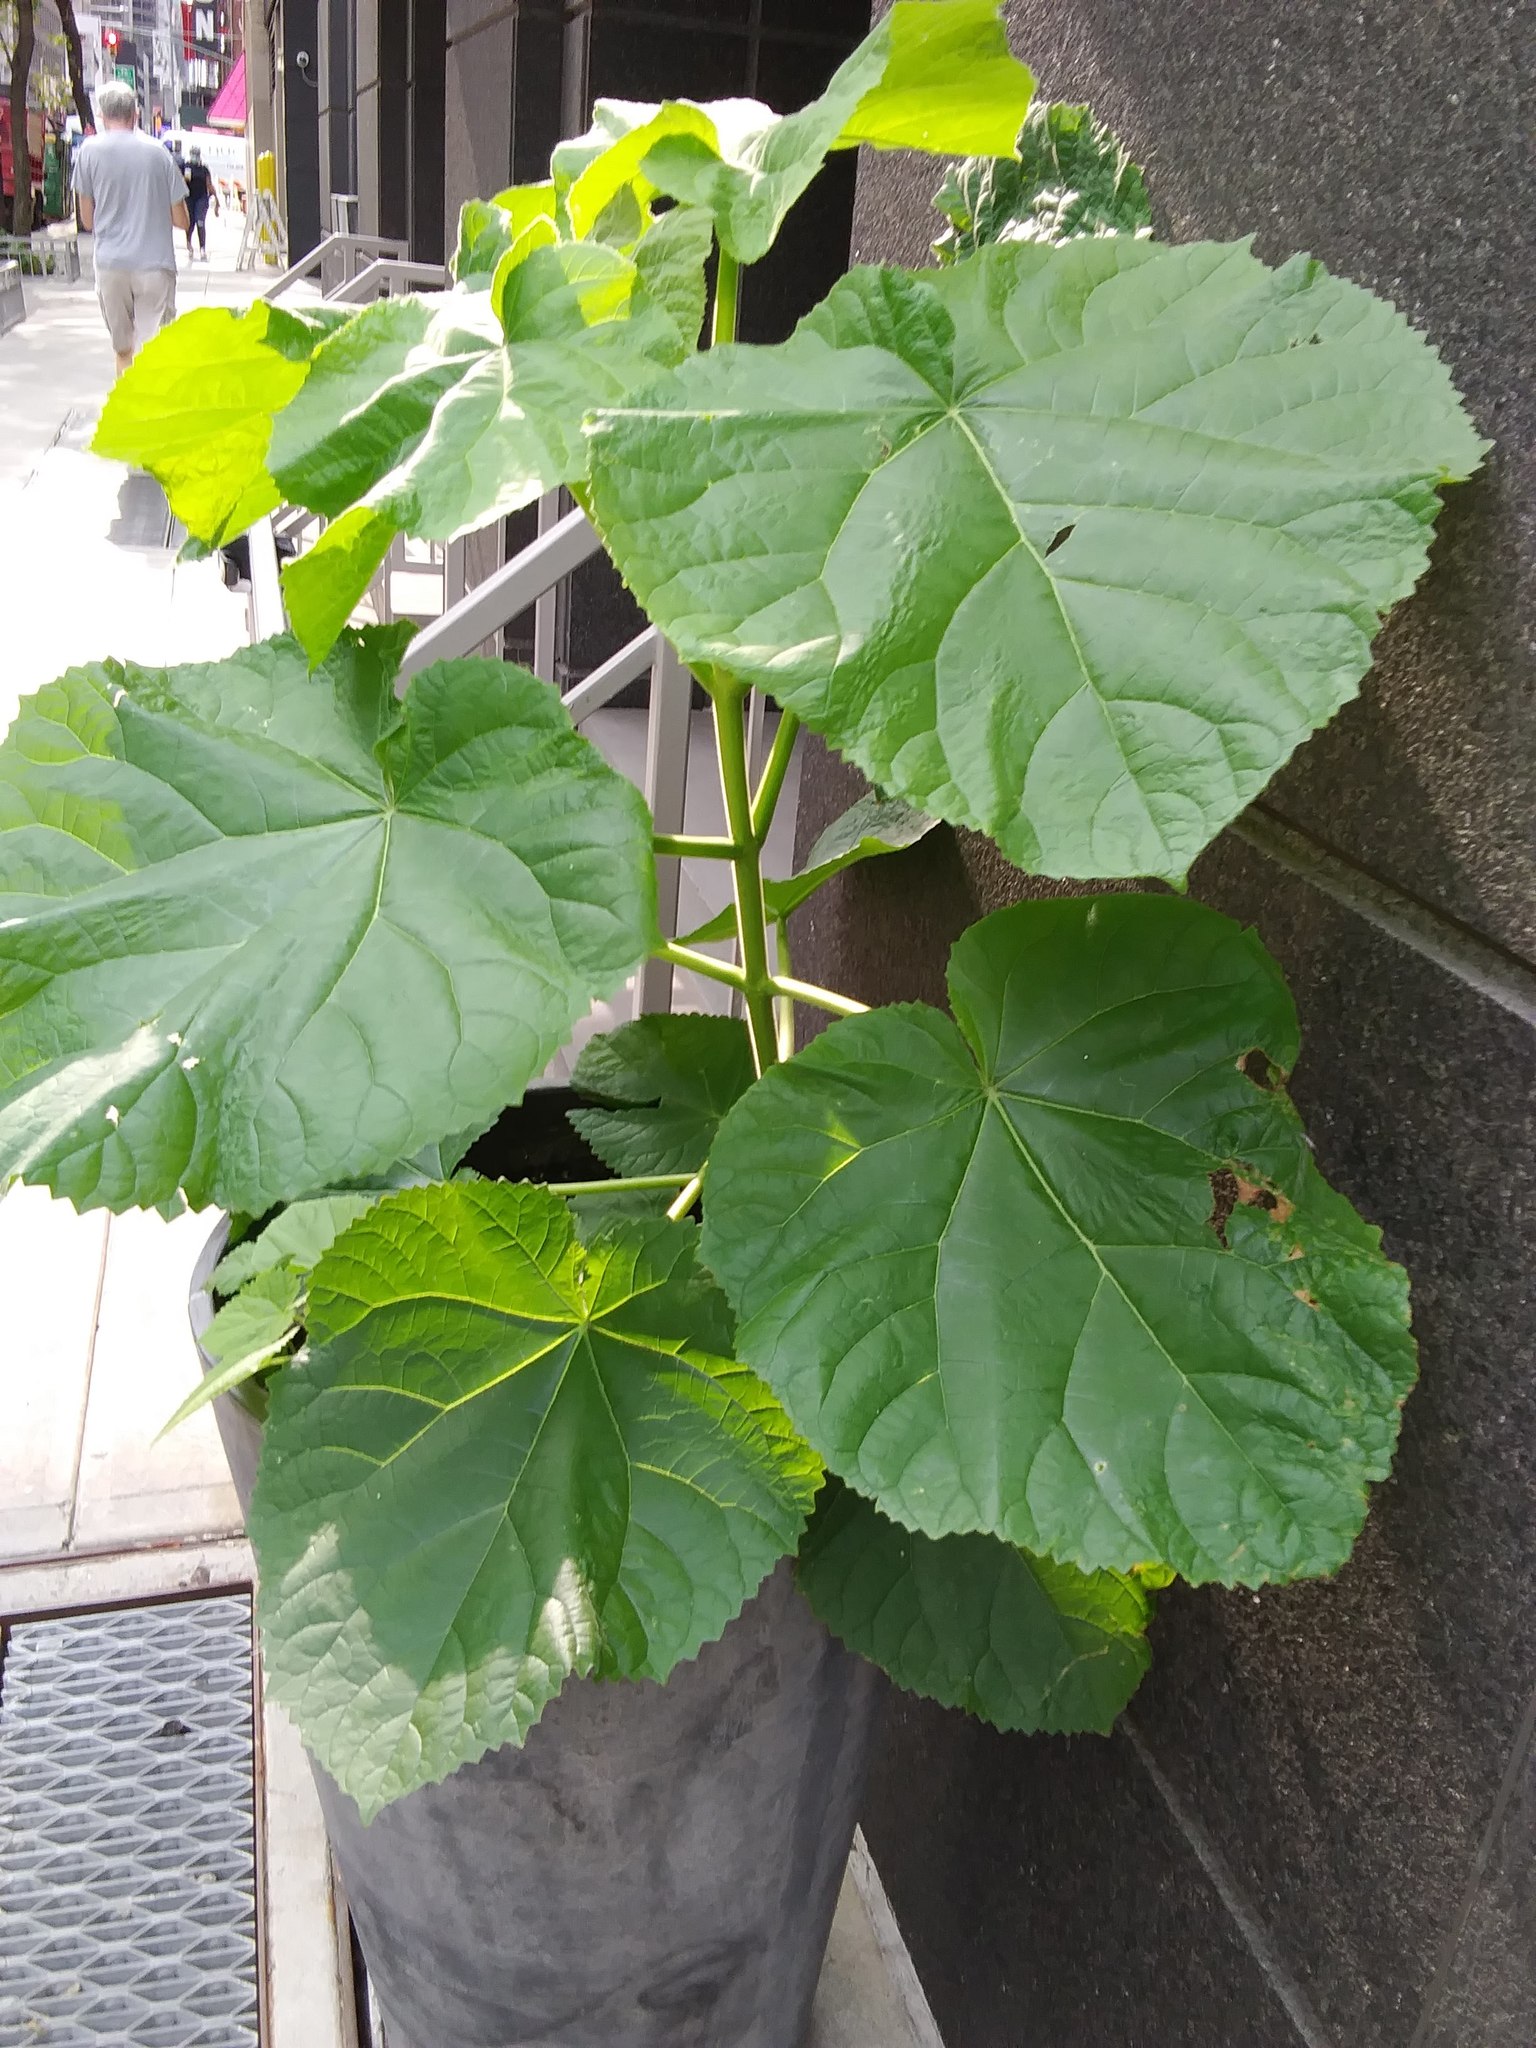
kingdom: Plantae
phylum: Tracheophyta
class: Magnoliopsida
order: Lamiales
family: Paulowniaceae
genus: Paulownia
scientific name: Paulownia tomentosa
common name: Foxglove-tree
